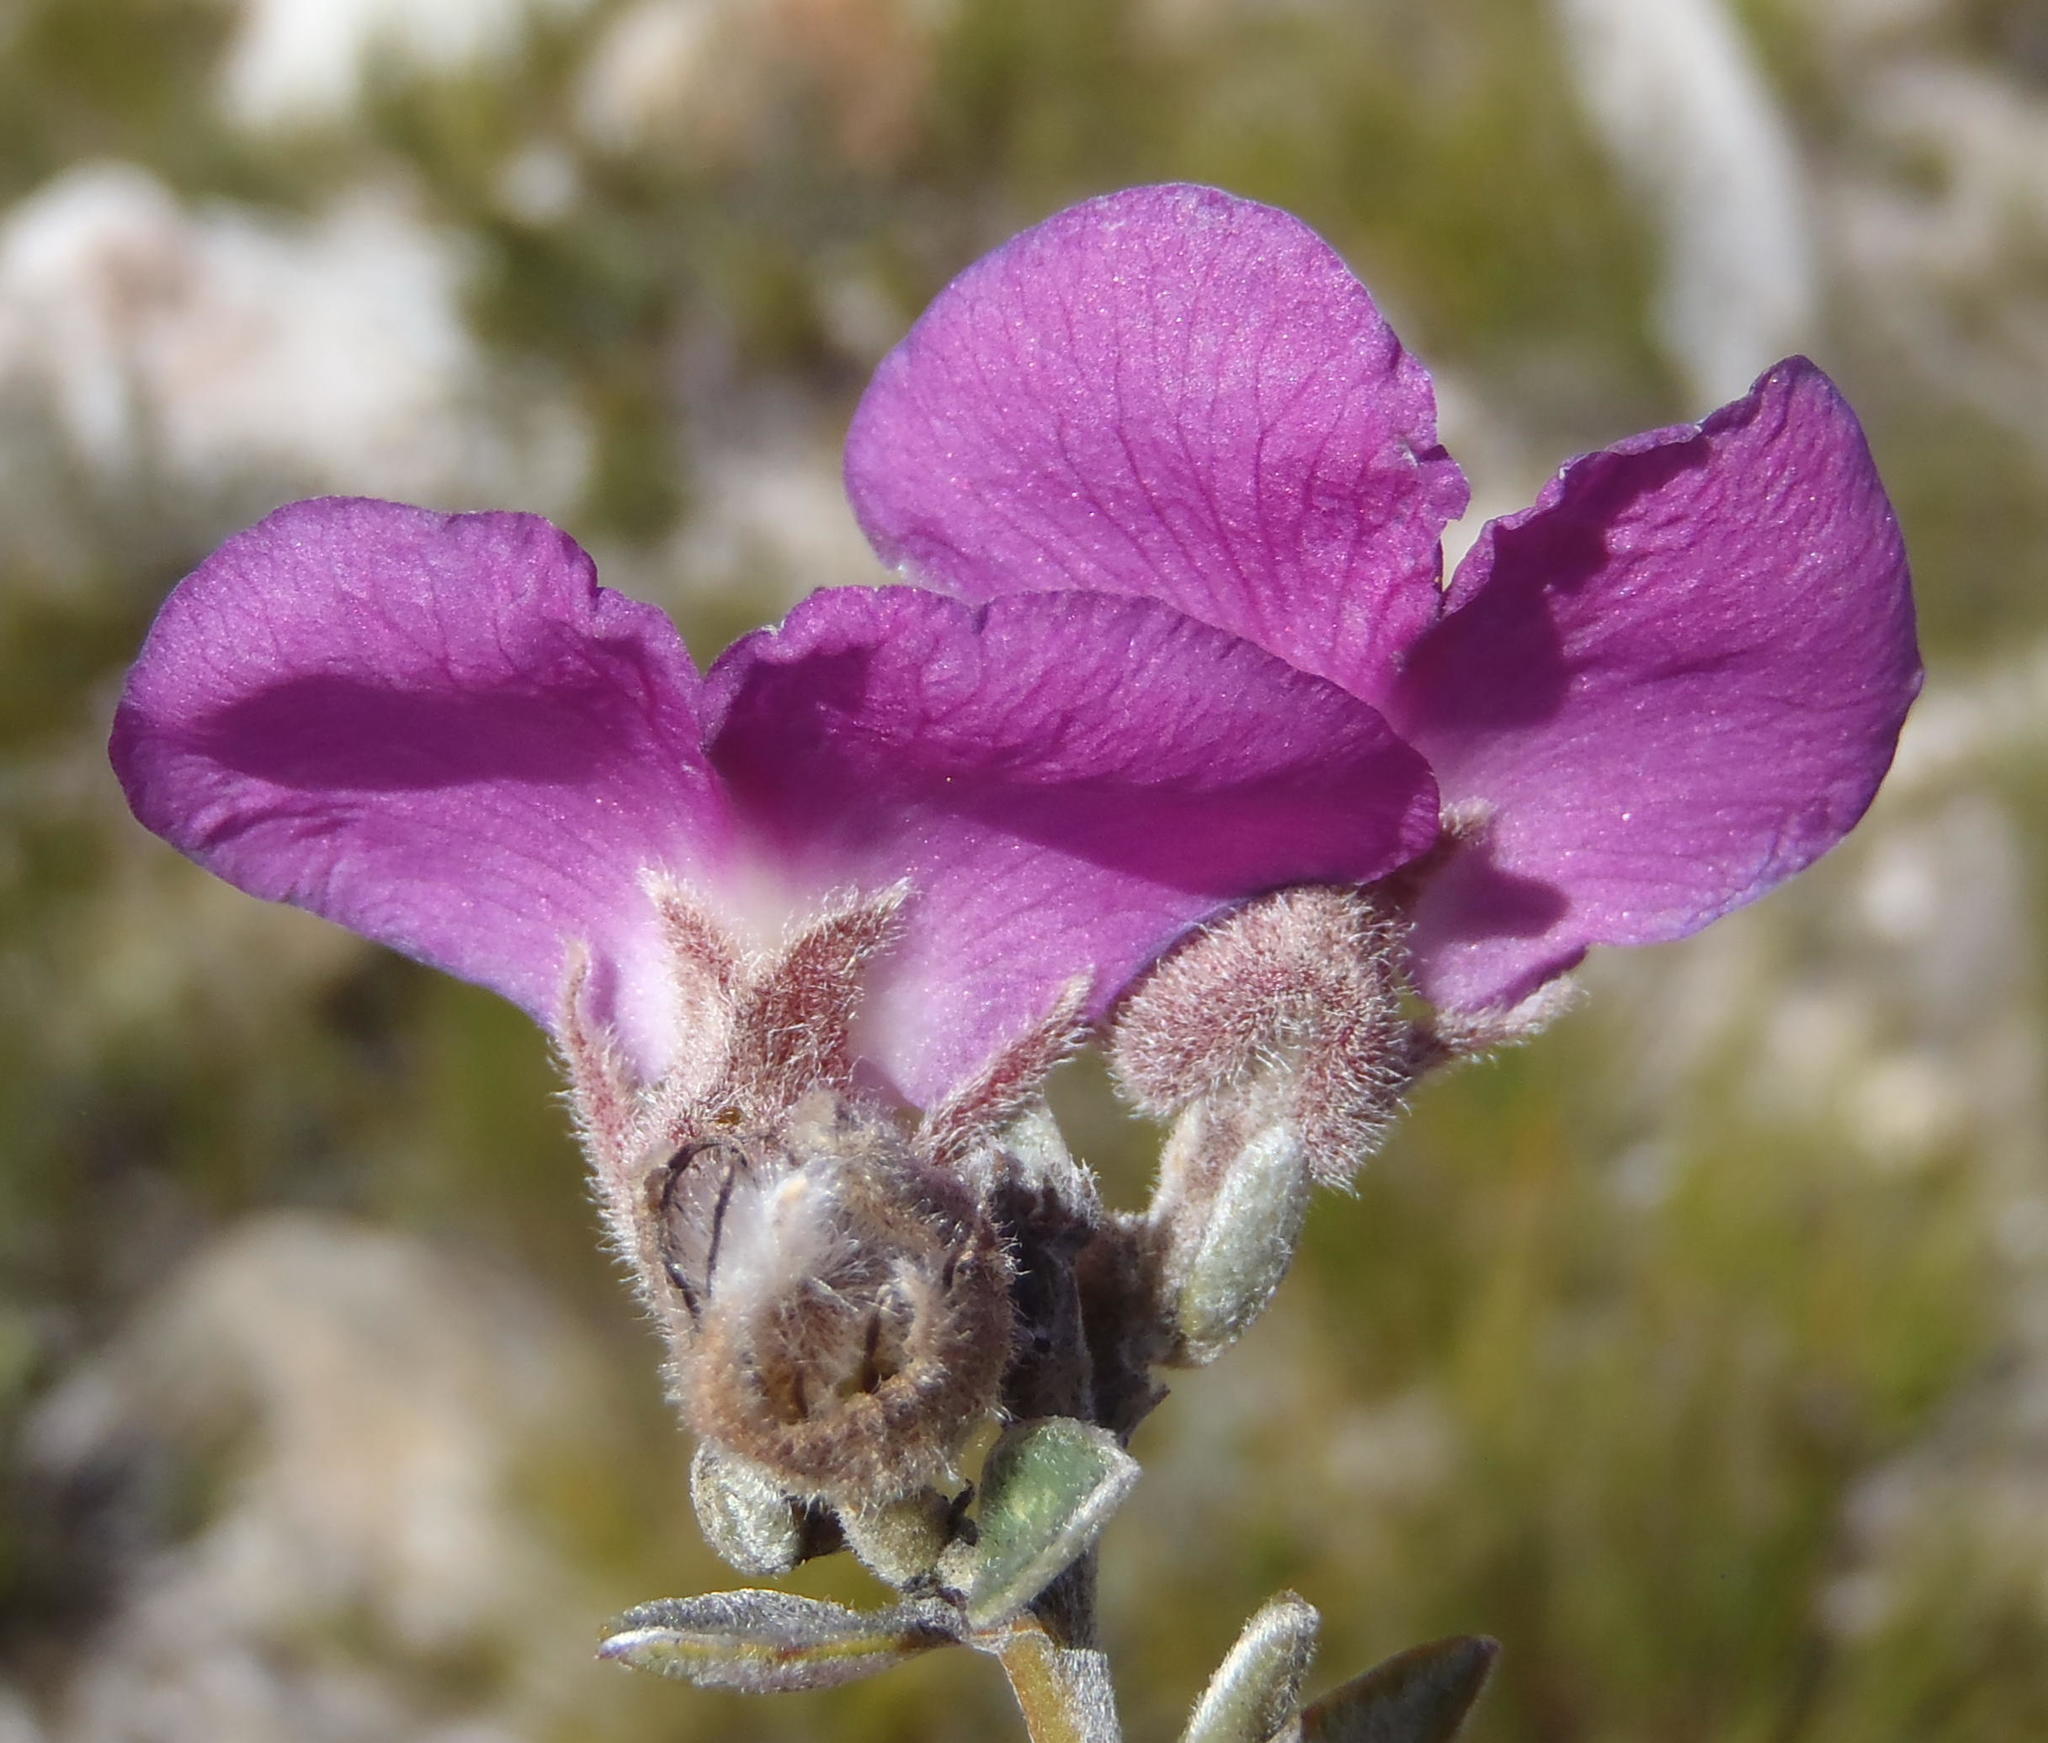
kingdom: Plantae
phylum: Tracheophyta
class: Magnoliopsida
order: Fabales
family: Fabaceae
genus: Podalyria
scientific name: Podalyria burchellii
